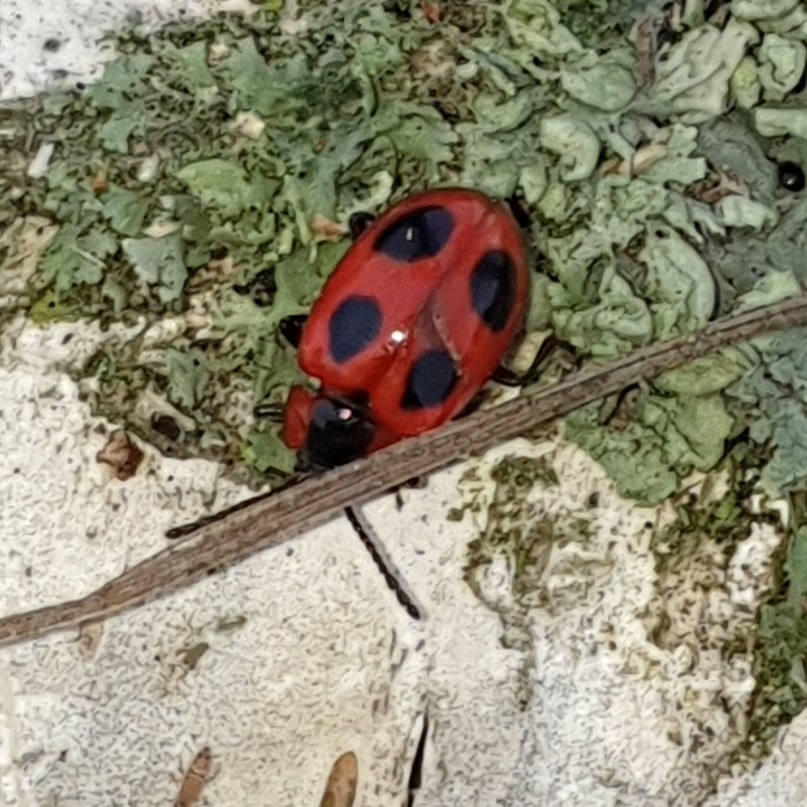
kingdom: Animalia
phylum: Arthropoda
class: Insecta
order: Coleoptera
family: Endomychidae
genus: Endomychus
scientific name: Endomychus coccineus
